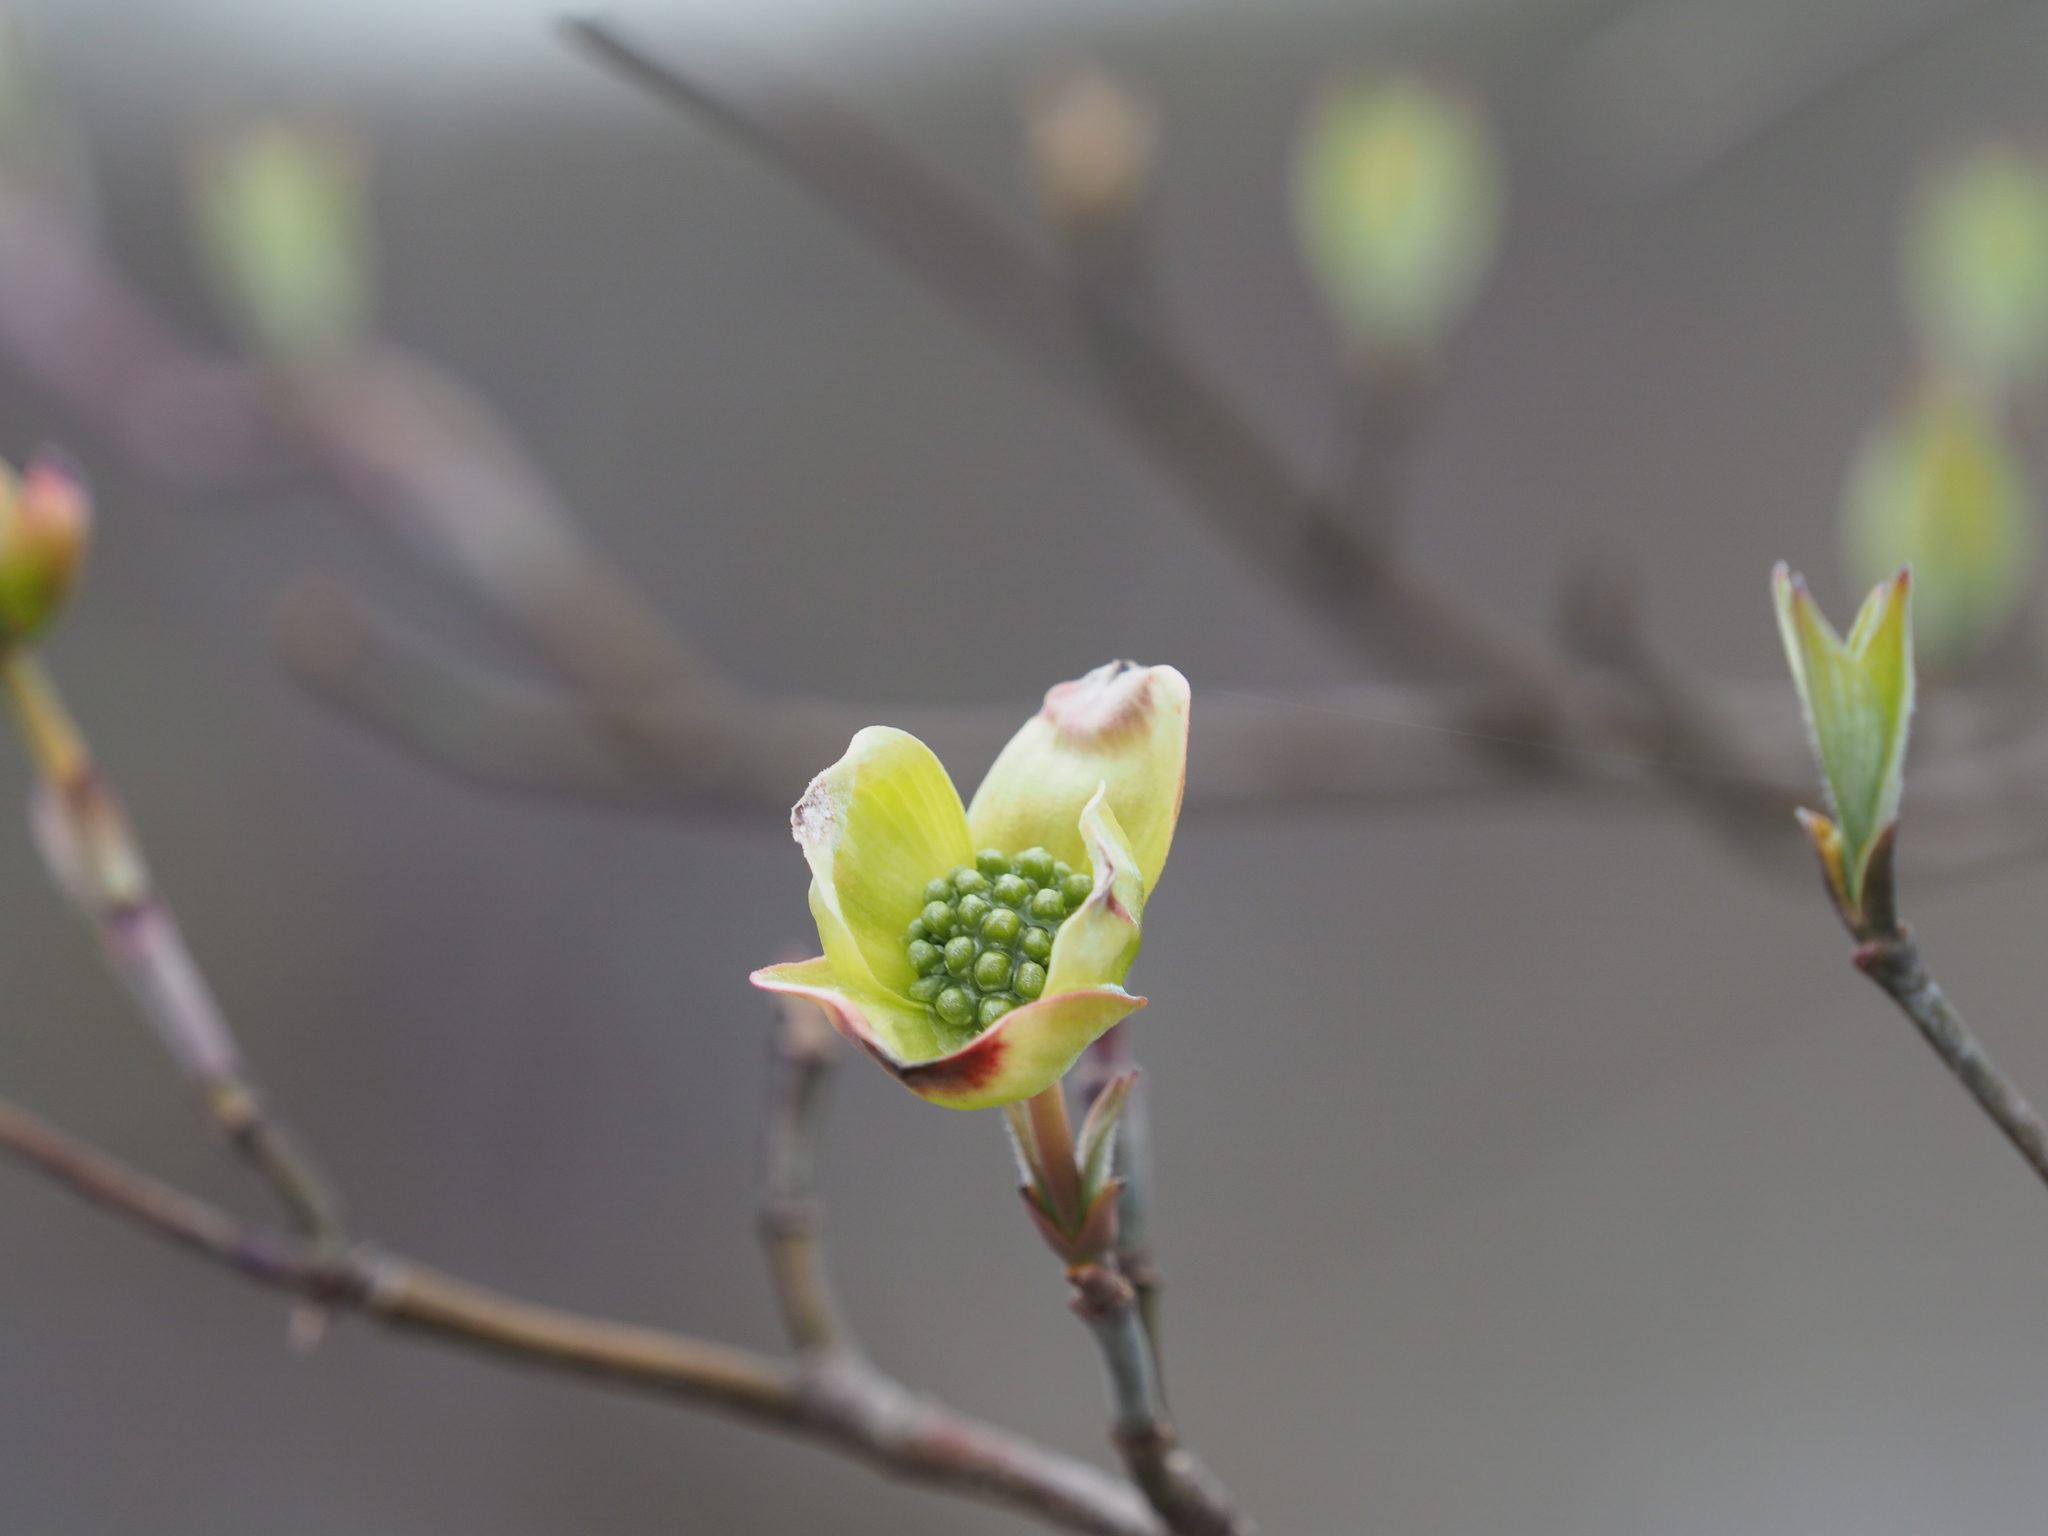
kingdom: Plantae
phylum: Tracheophyta
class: Magnoliopsida
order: Cornales
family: Cornaceae
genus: Cornus
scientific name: Cornus florida
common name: Flowering dogwood
